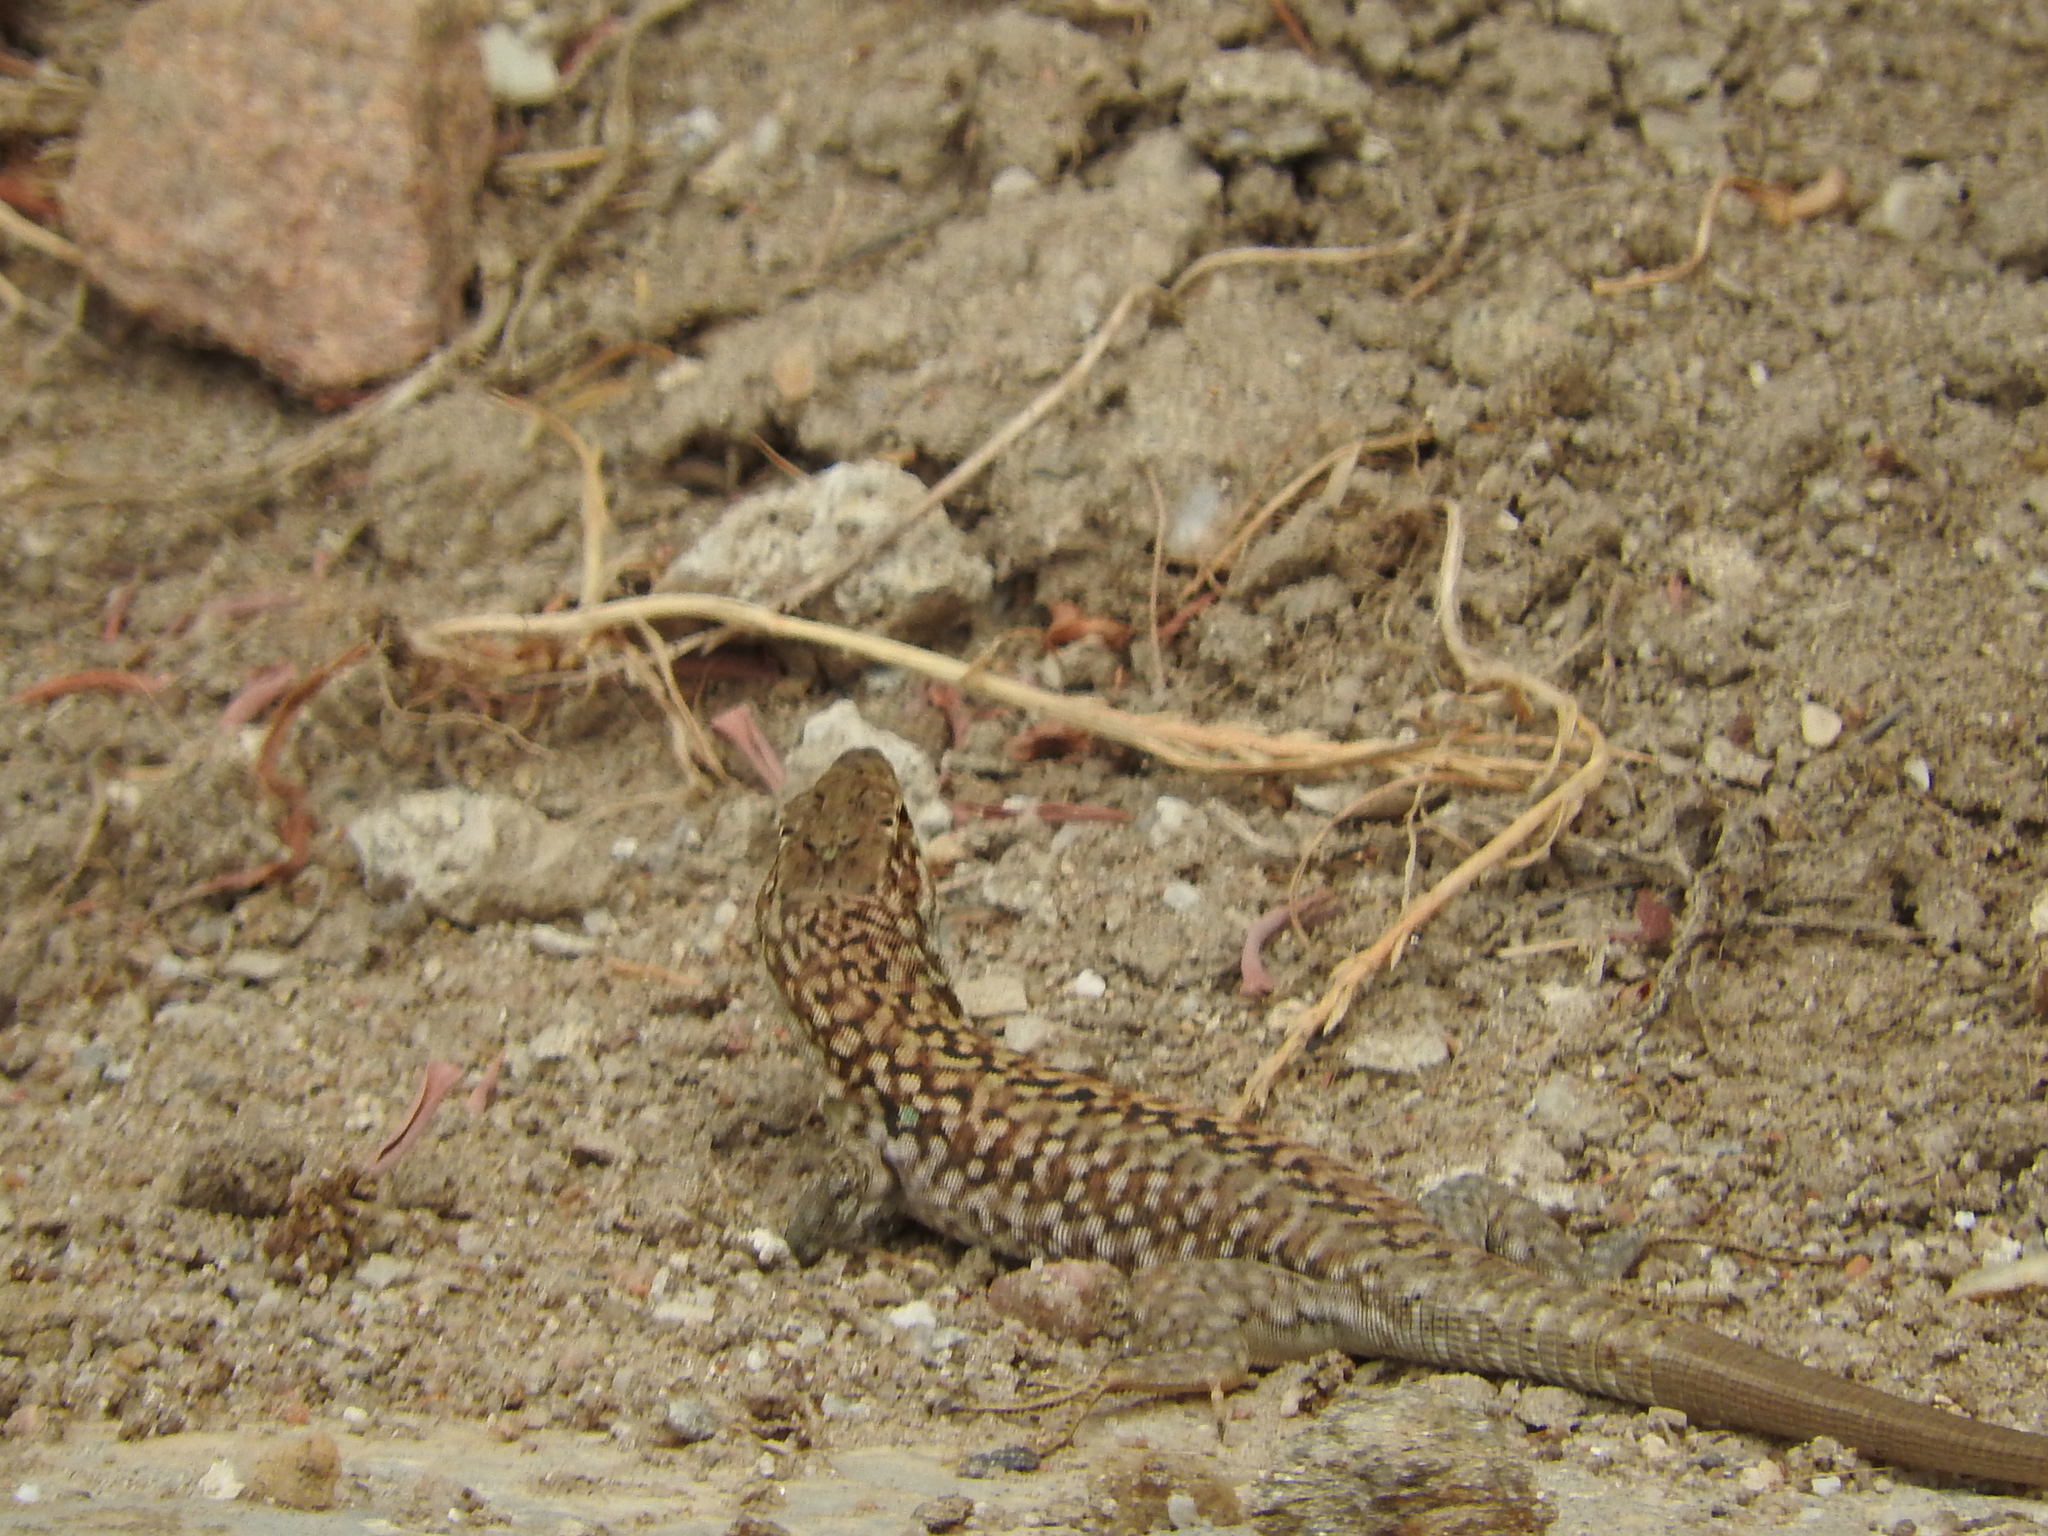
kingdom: Animalia
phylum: Chordata
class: Squamata
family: Lacertidae
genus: Podarcis
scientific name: Podarcis siculus
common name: Italian wall lizard
